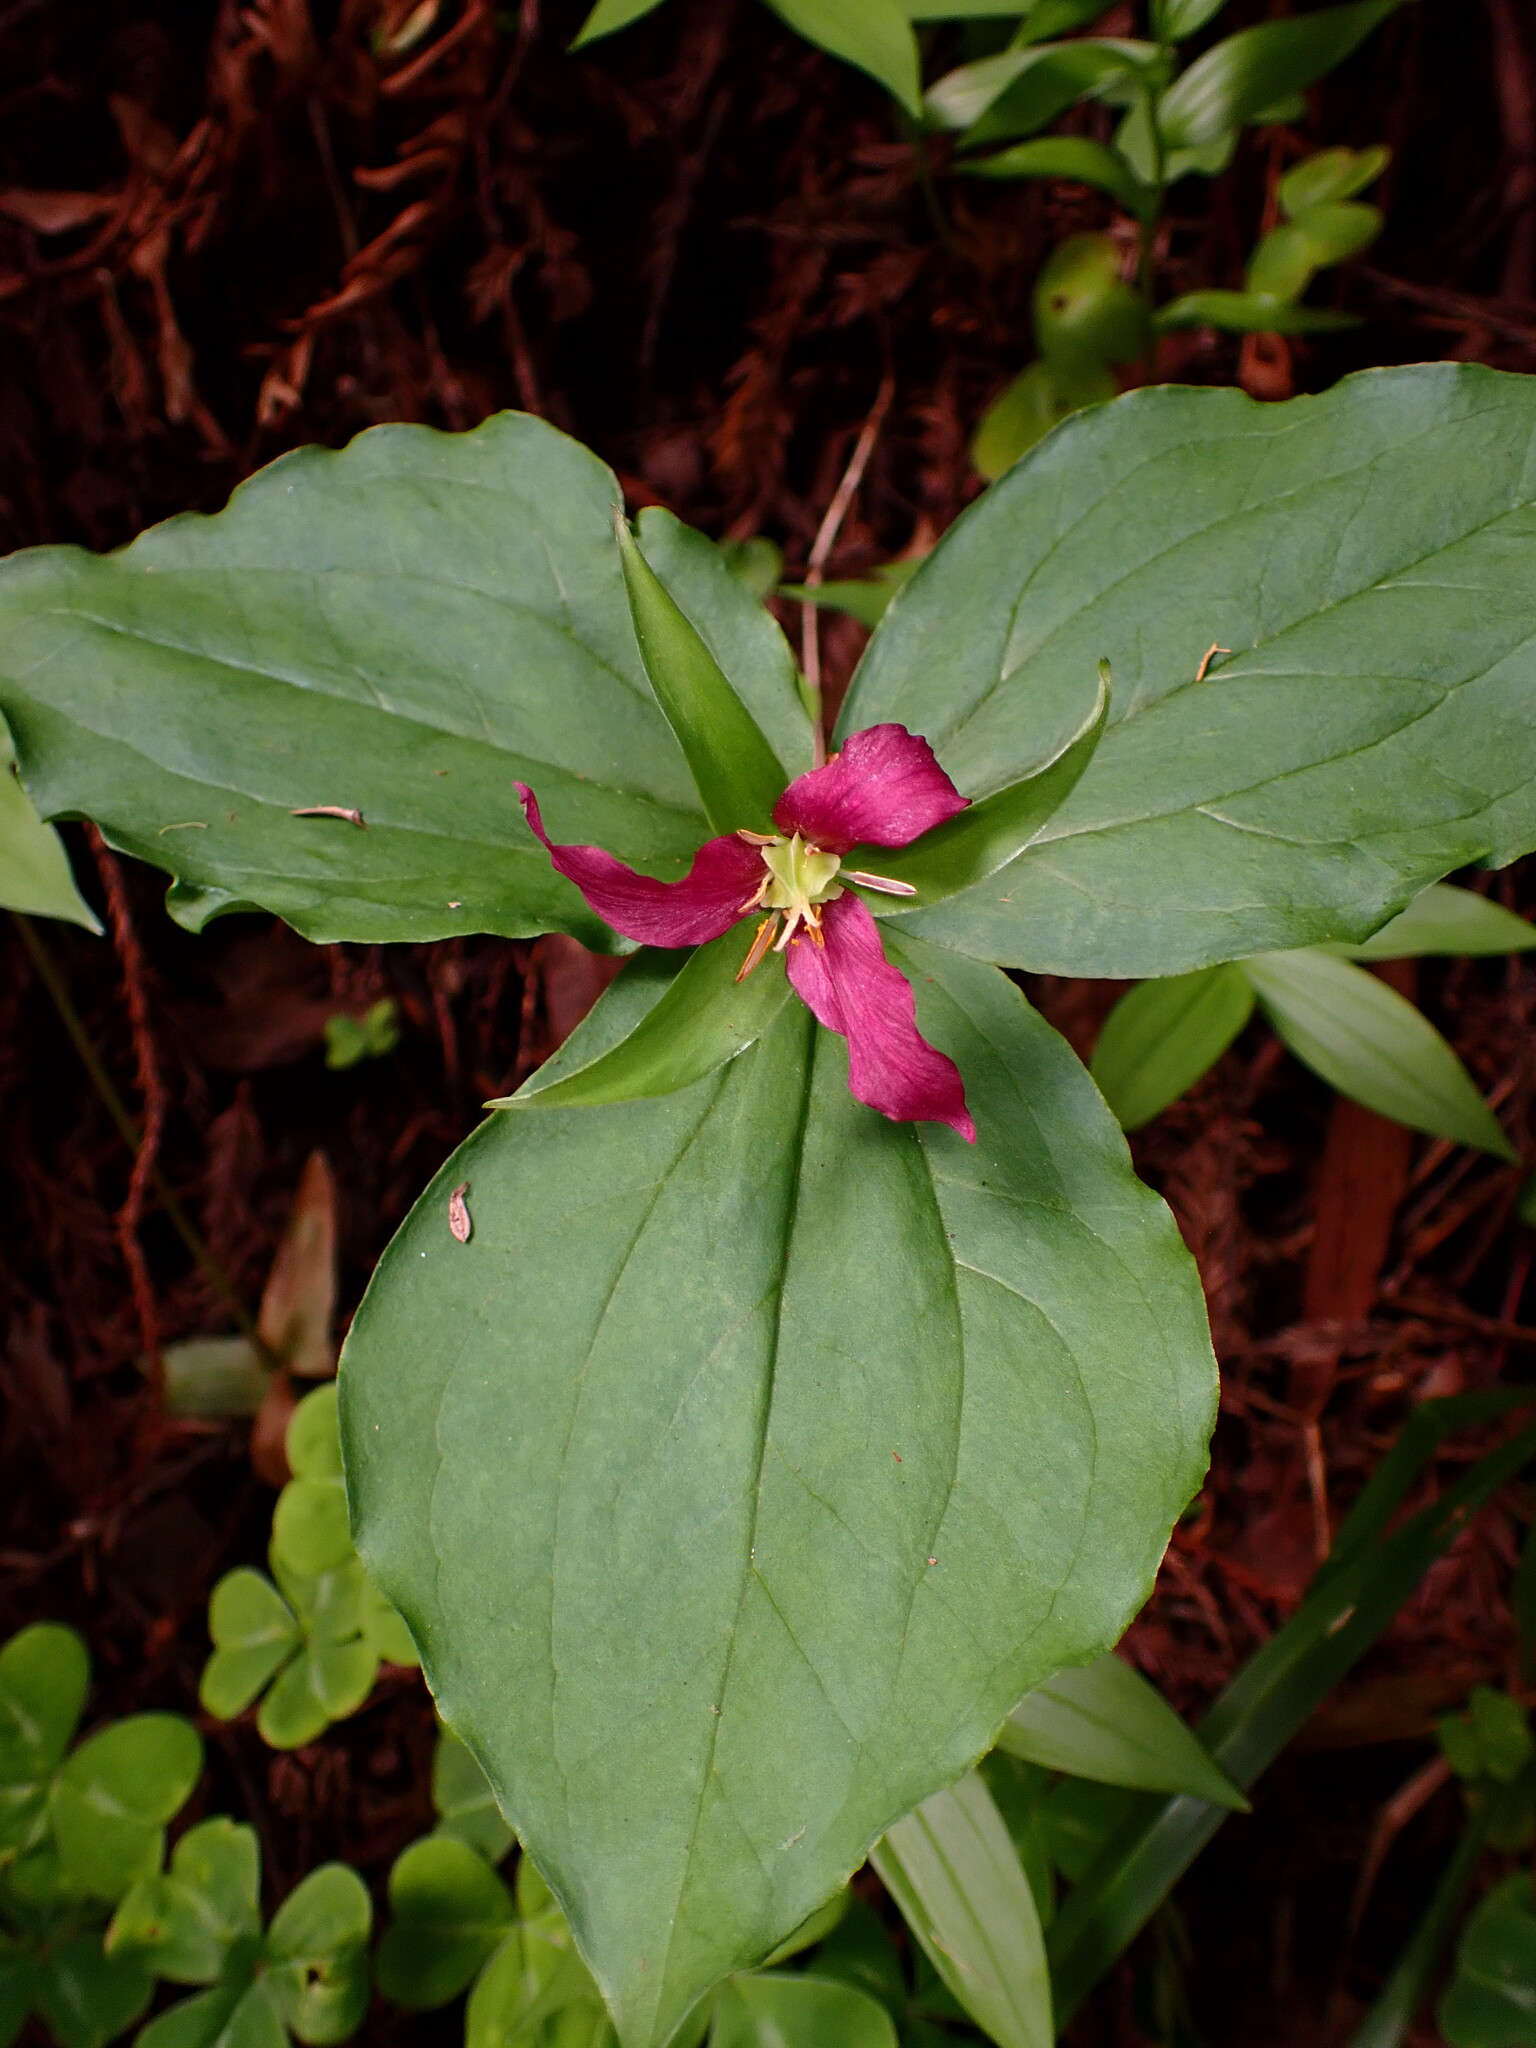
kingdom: Plantae
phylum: Tracheophyta
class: Liliopsida
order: Liliales
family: Melanthiaceae
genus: Trillium
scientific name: Trillium ovatum
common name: Pacific trillium
